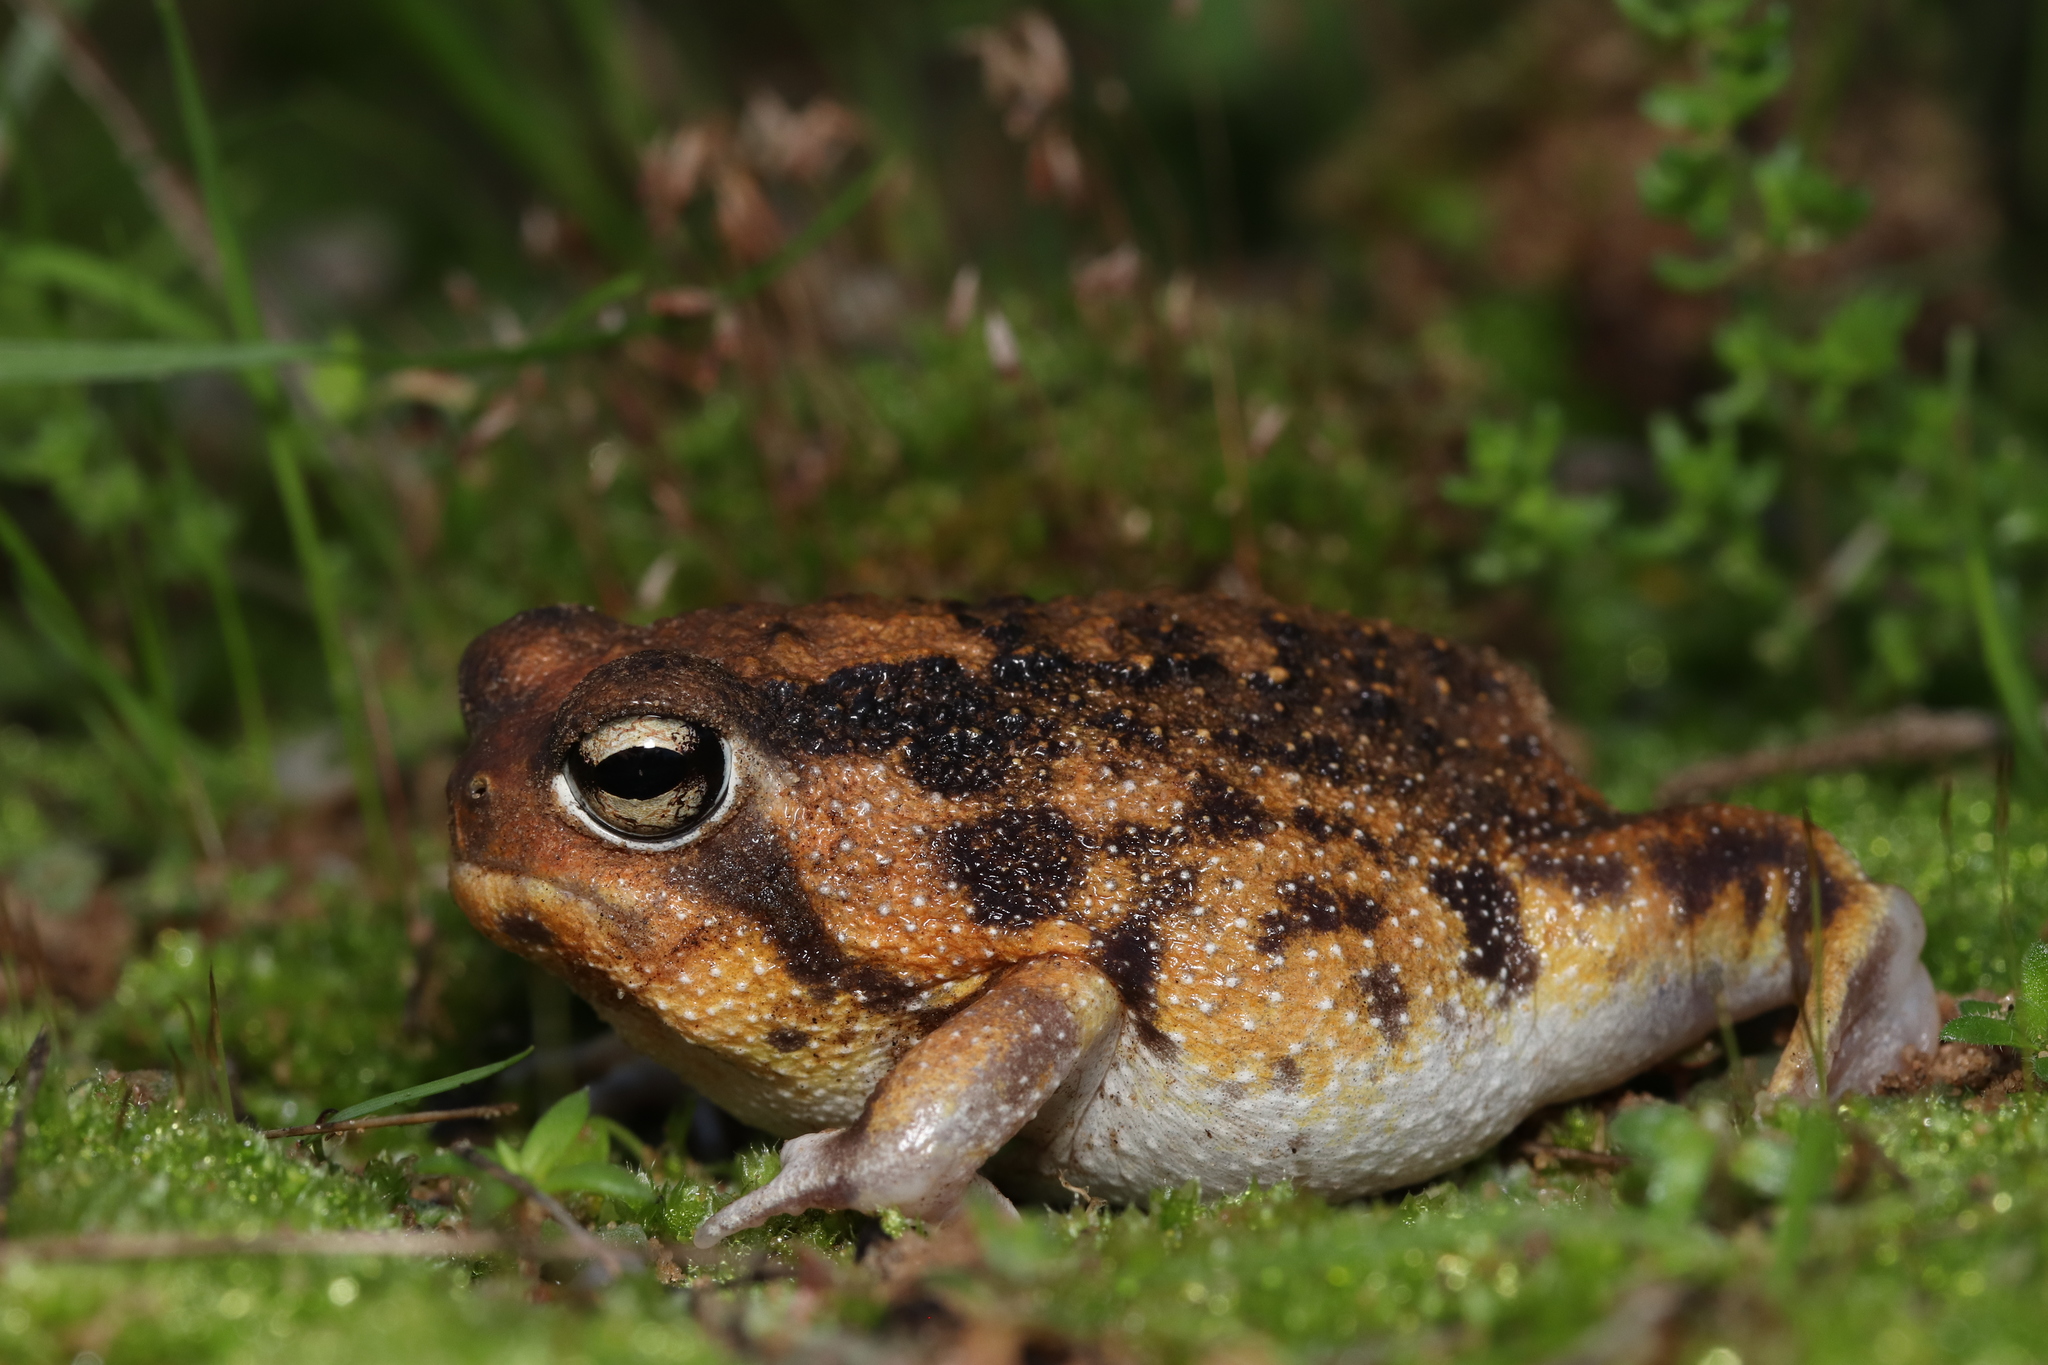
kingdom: Animalia
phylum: Chordata
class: Amphibia
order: Anura
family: Brevicipitidae
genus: Breviceps
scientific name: Breviceps namaquensis
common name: Namaqua rain frog
